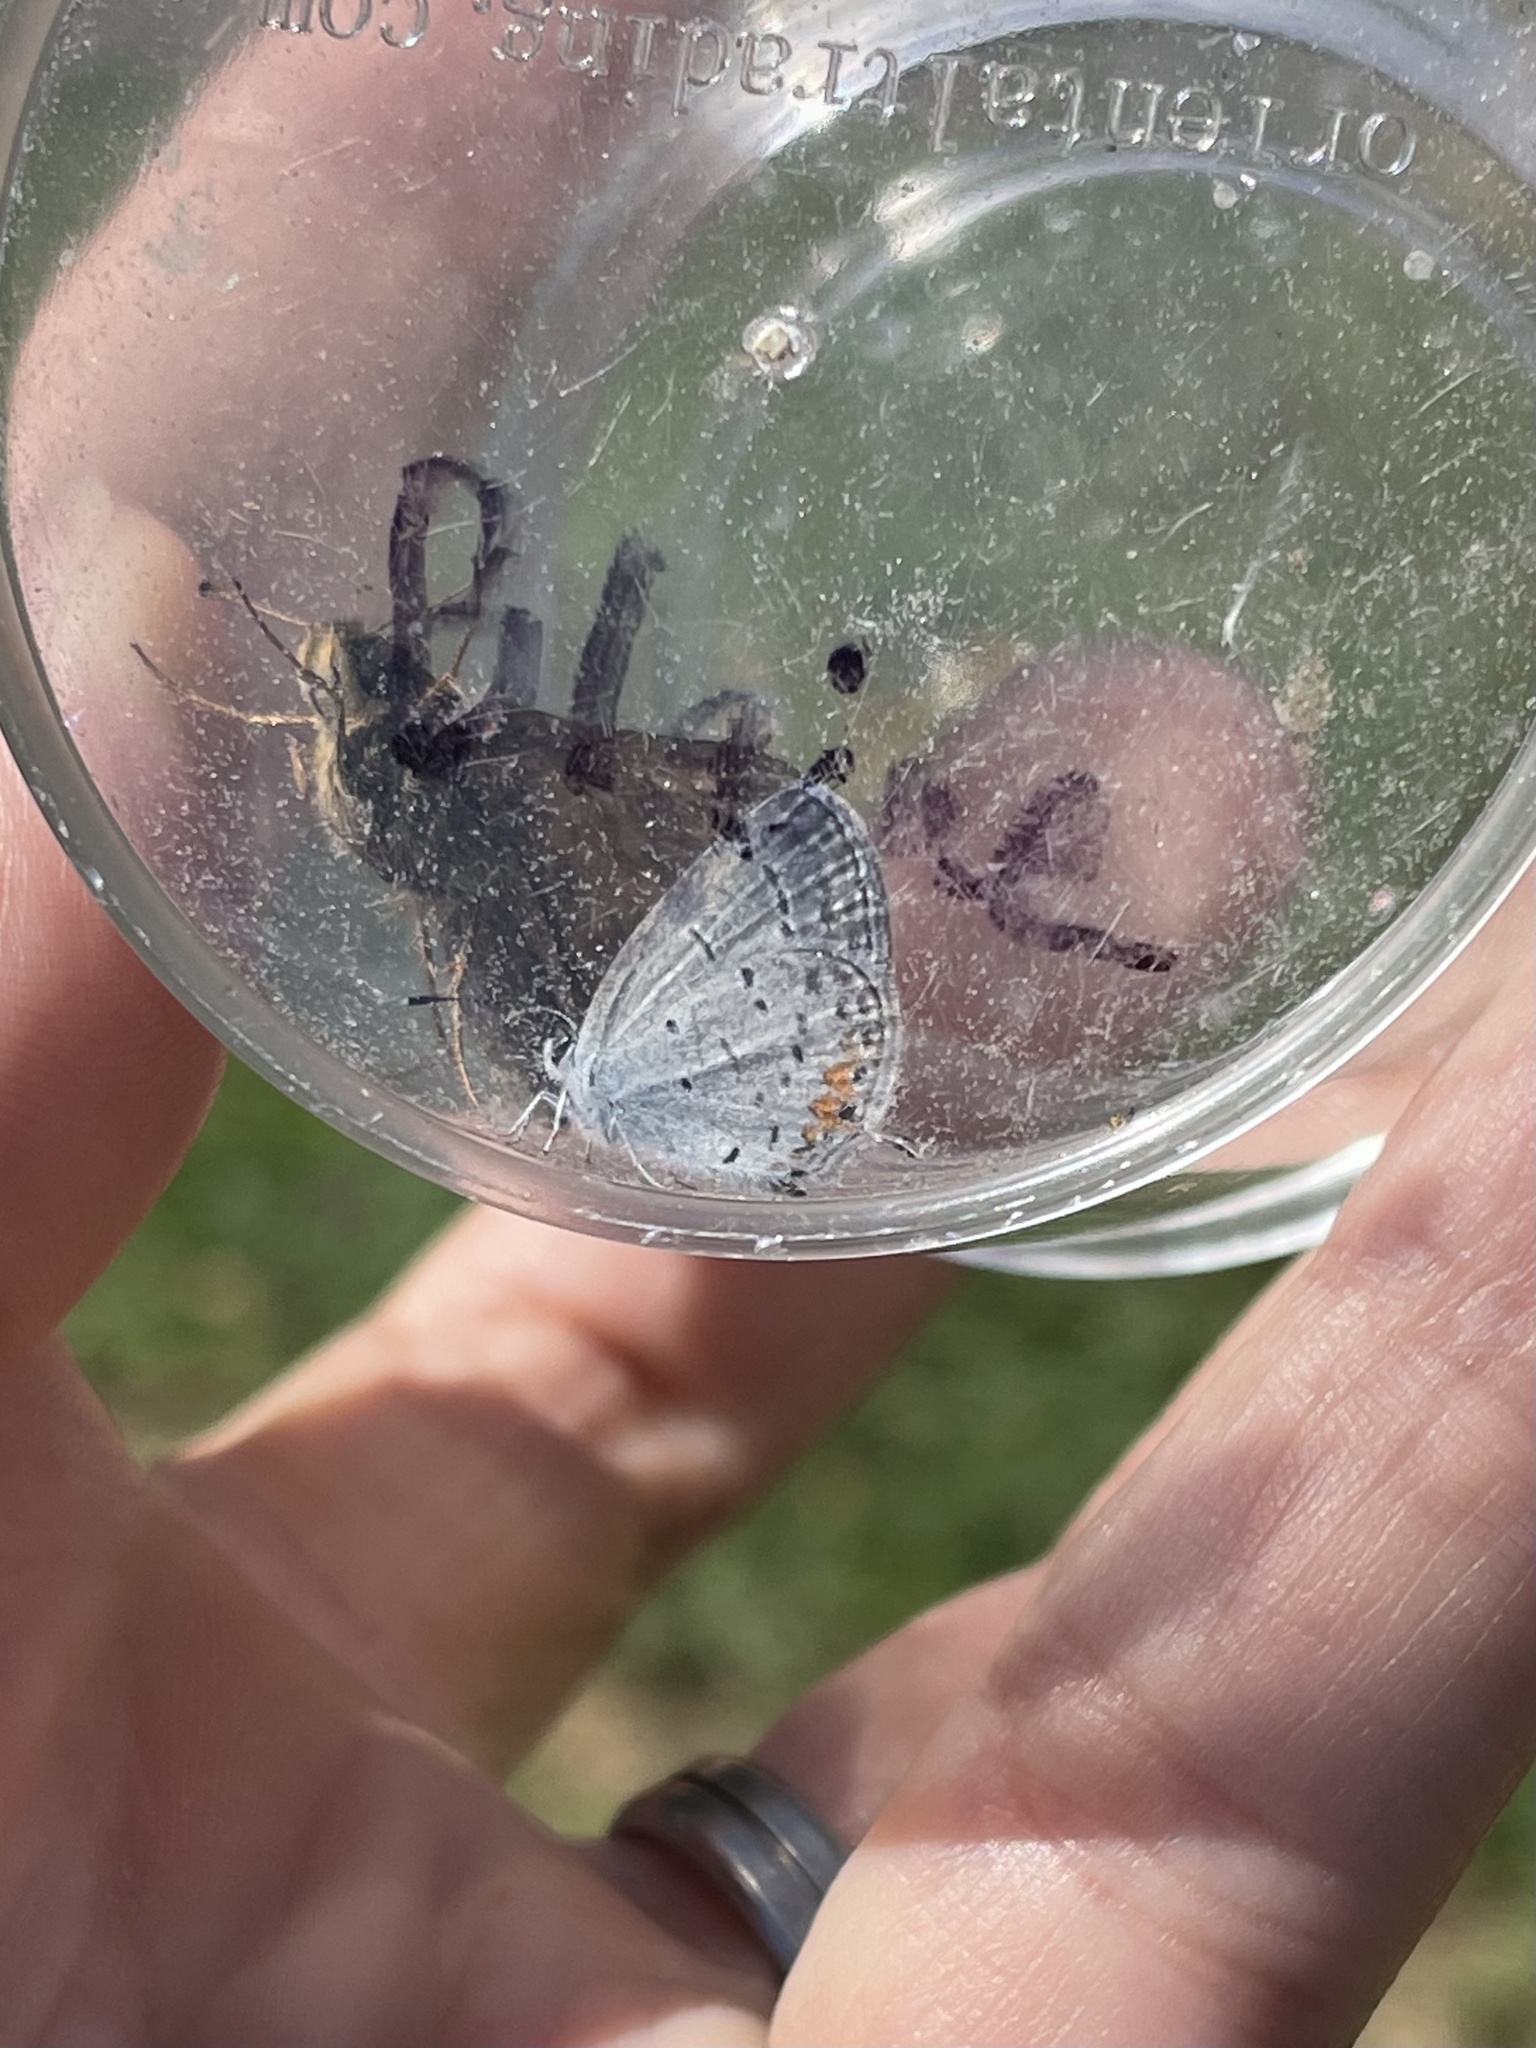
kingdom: Animalia
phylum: Arthropoda
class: Insecta
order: Lepidoptera
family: Lycaenidae
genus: Elkalyce
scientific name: Elkalyce comyntas
